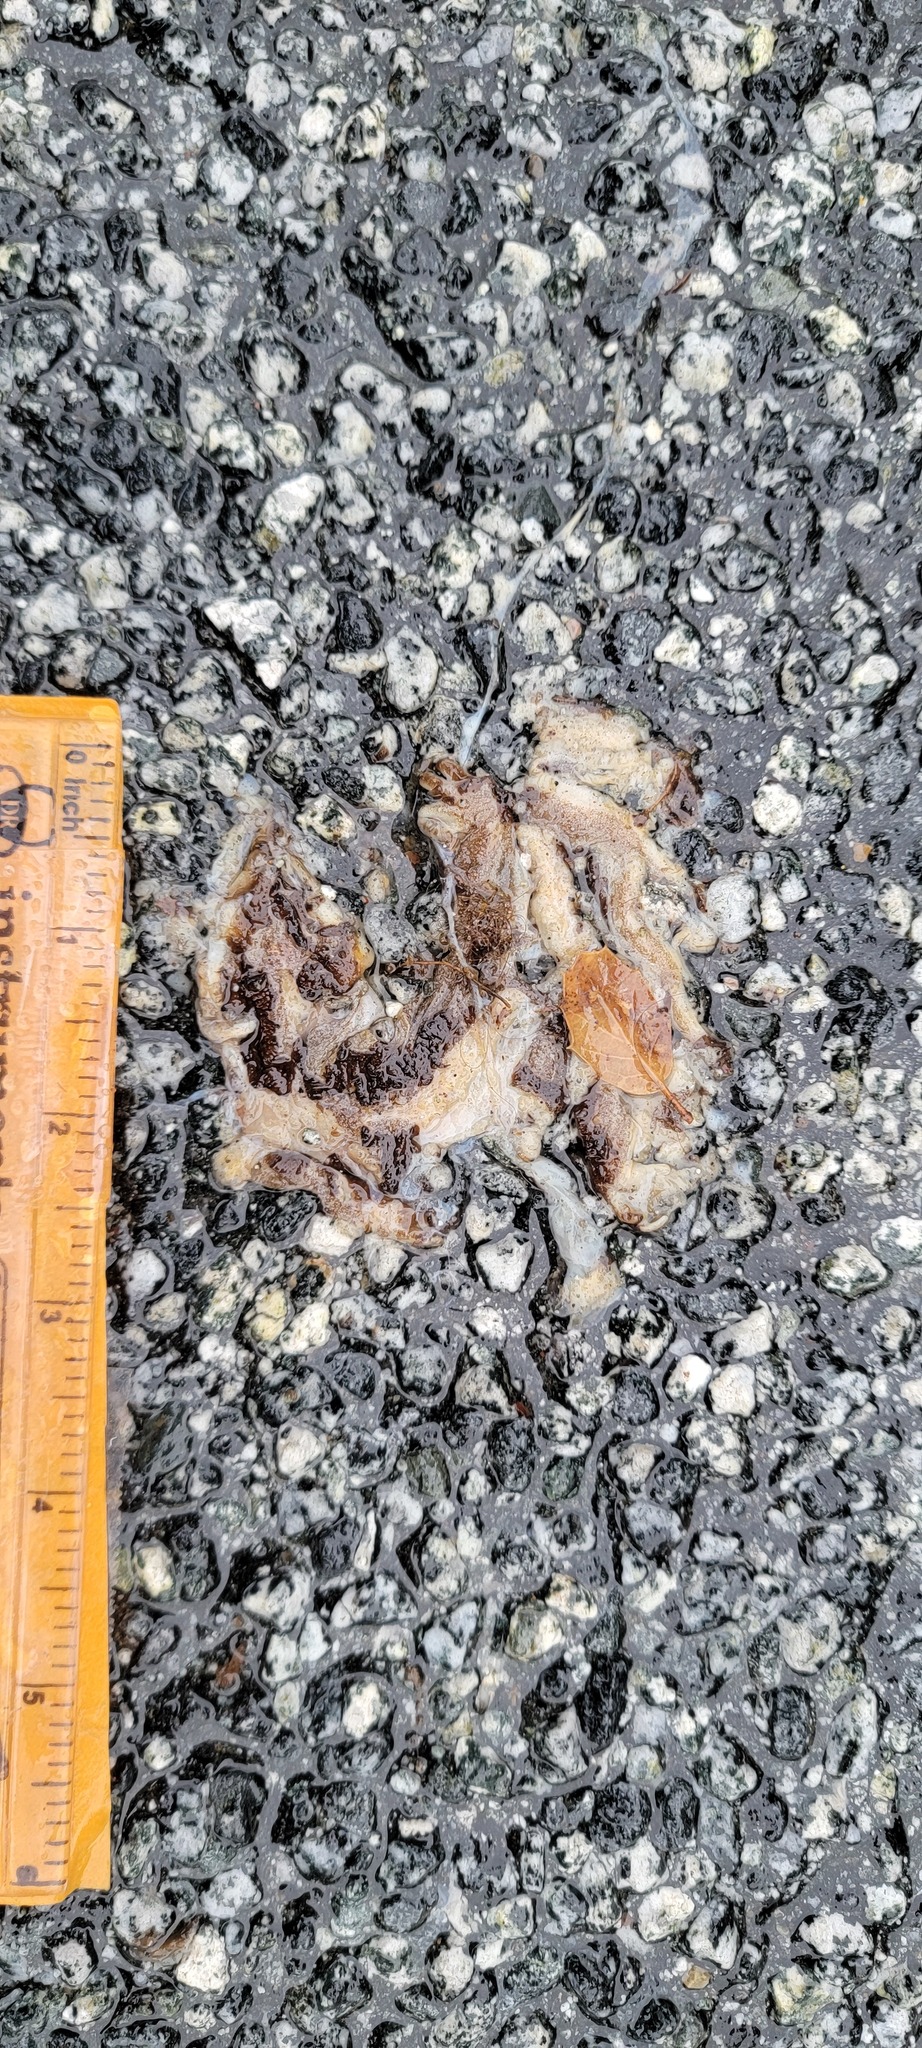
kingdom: Animalia
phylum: Chordata
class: Amphibia
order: Caudata
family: Salamandridae
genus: Taricha
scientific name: Taricha
